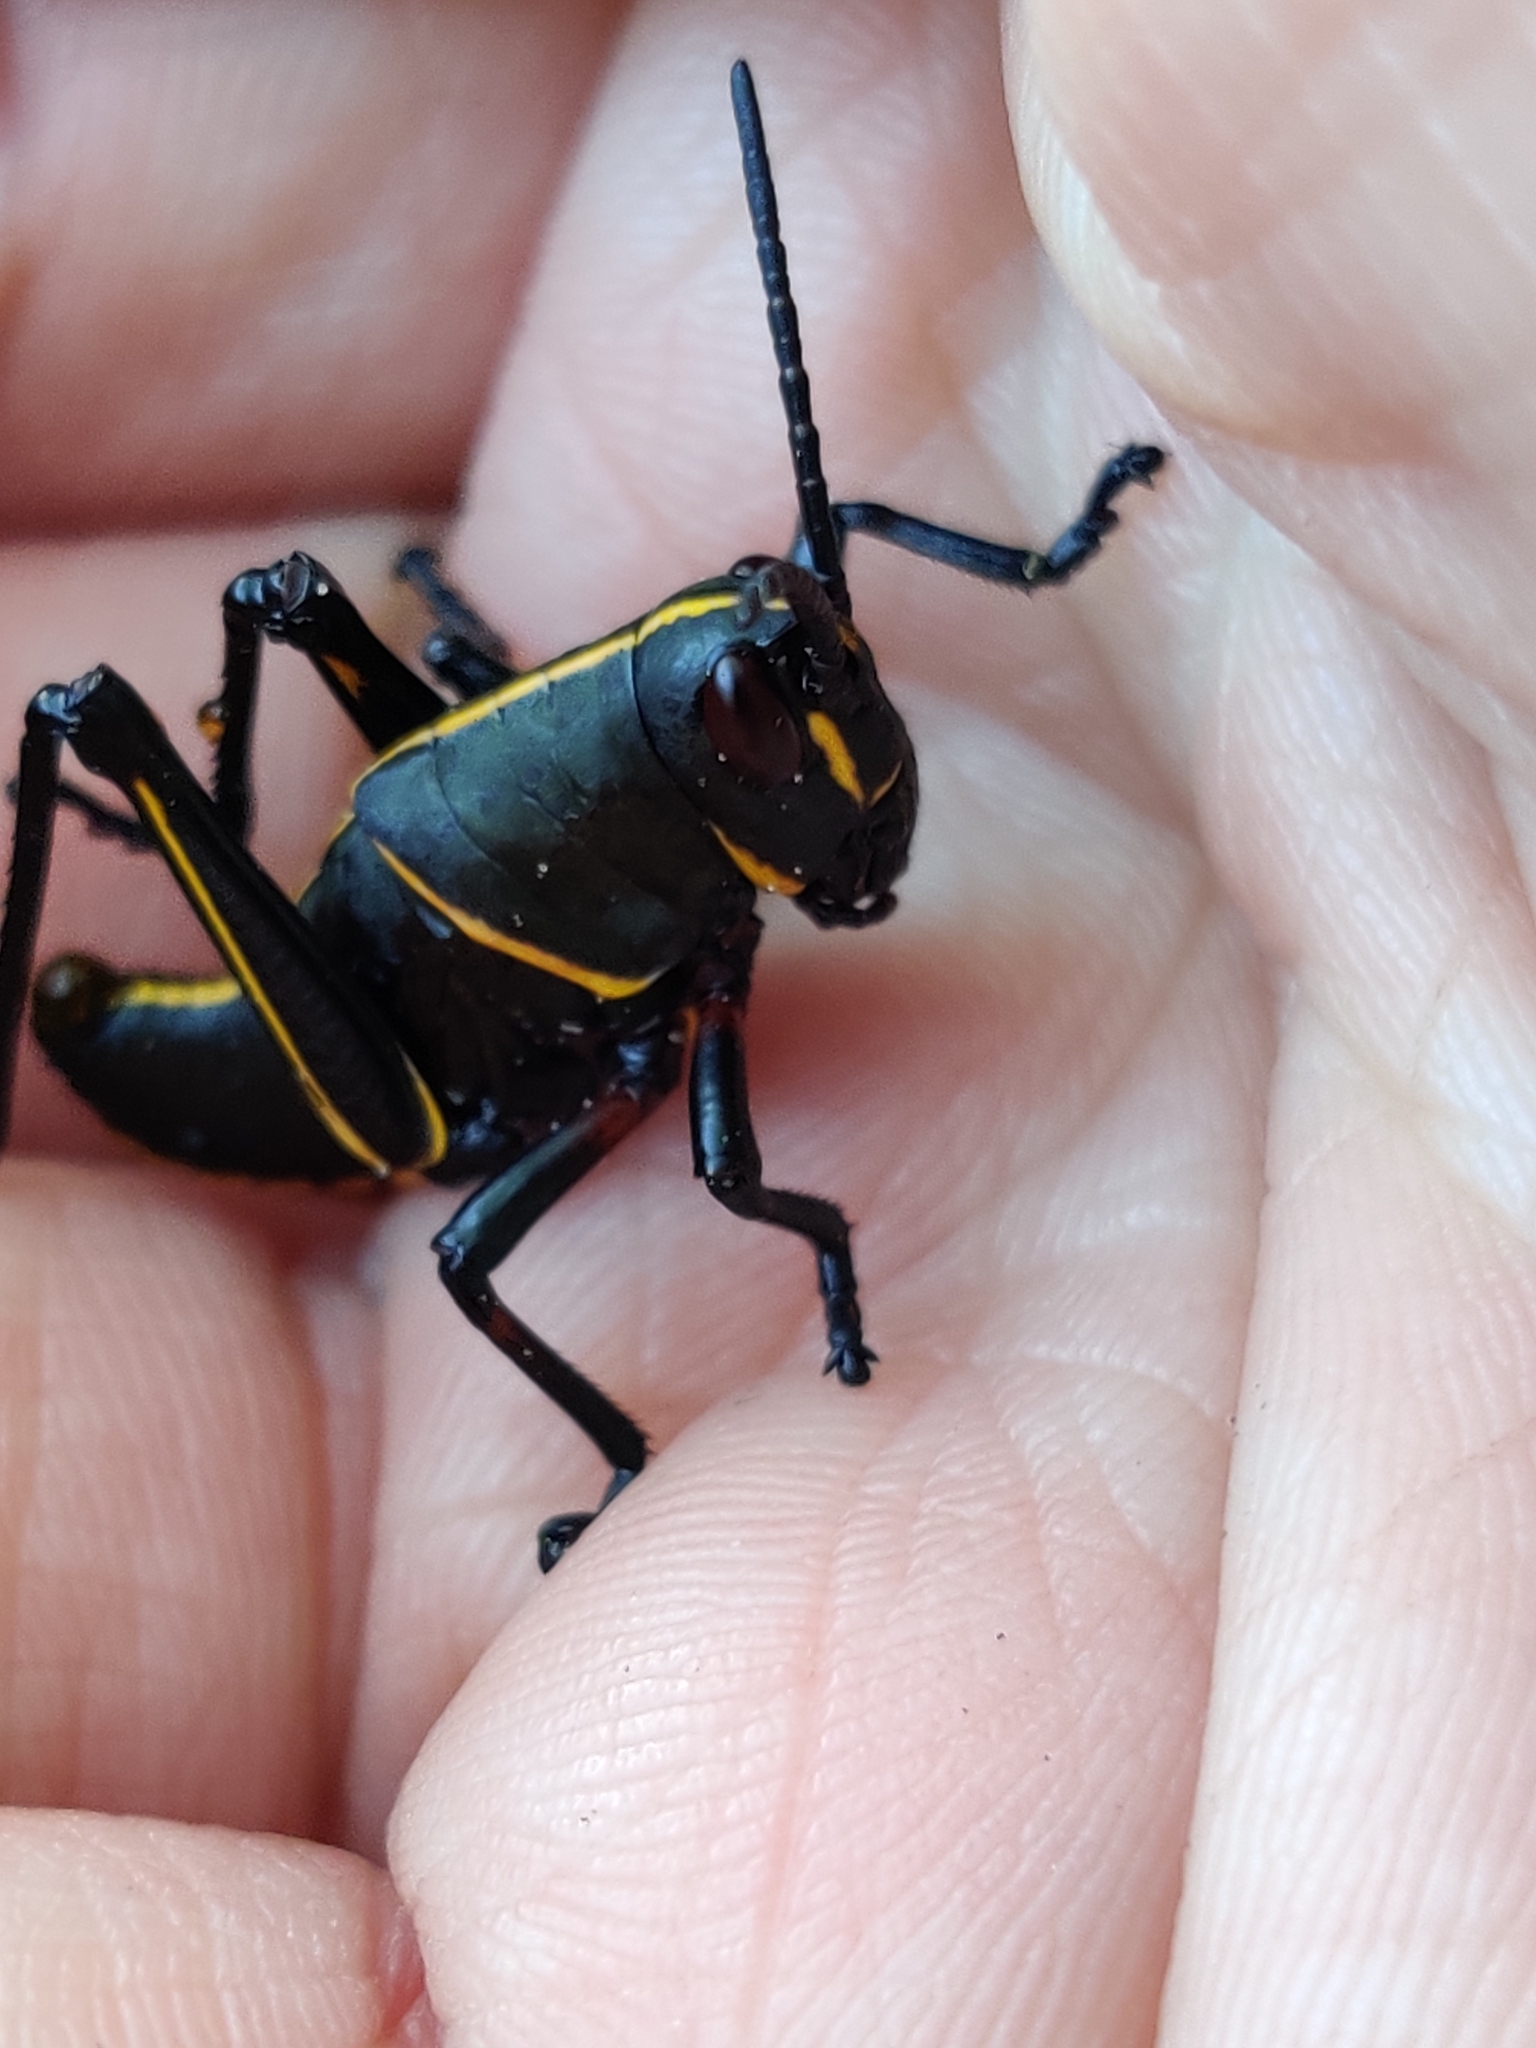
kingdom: Animalia
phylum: Arthropoda
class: Insecta
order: Orthoptera
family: Romaleidae
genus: Romalea
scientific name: Romalea microptera
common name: Eastern lubber grasshopper
